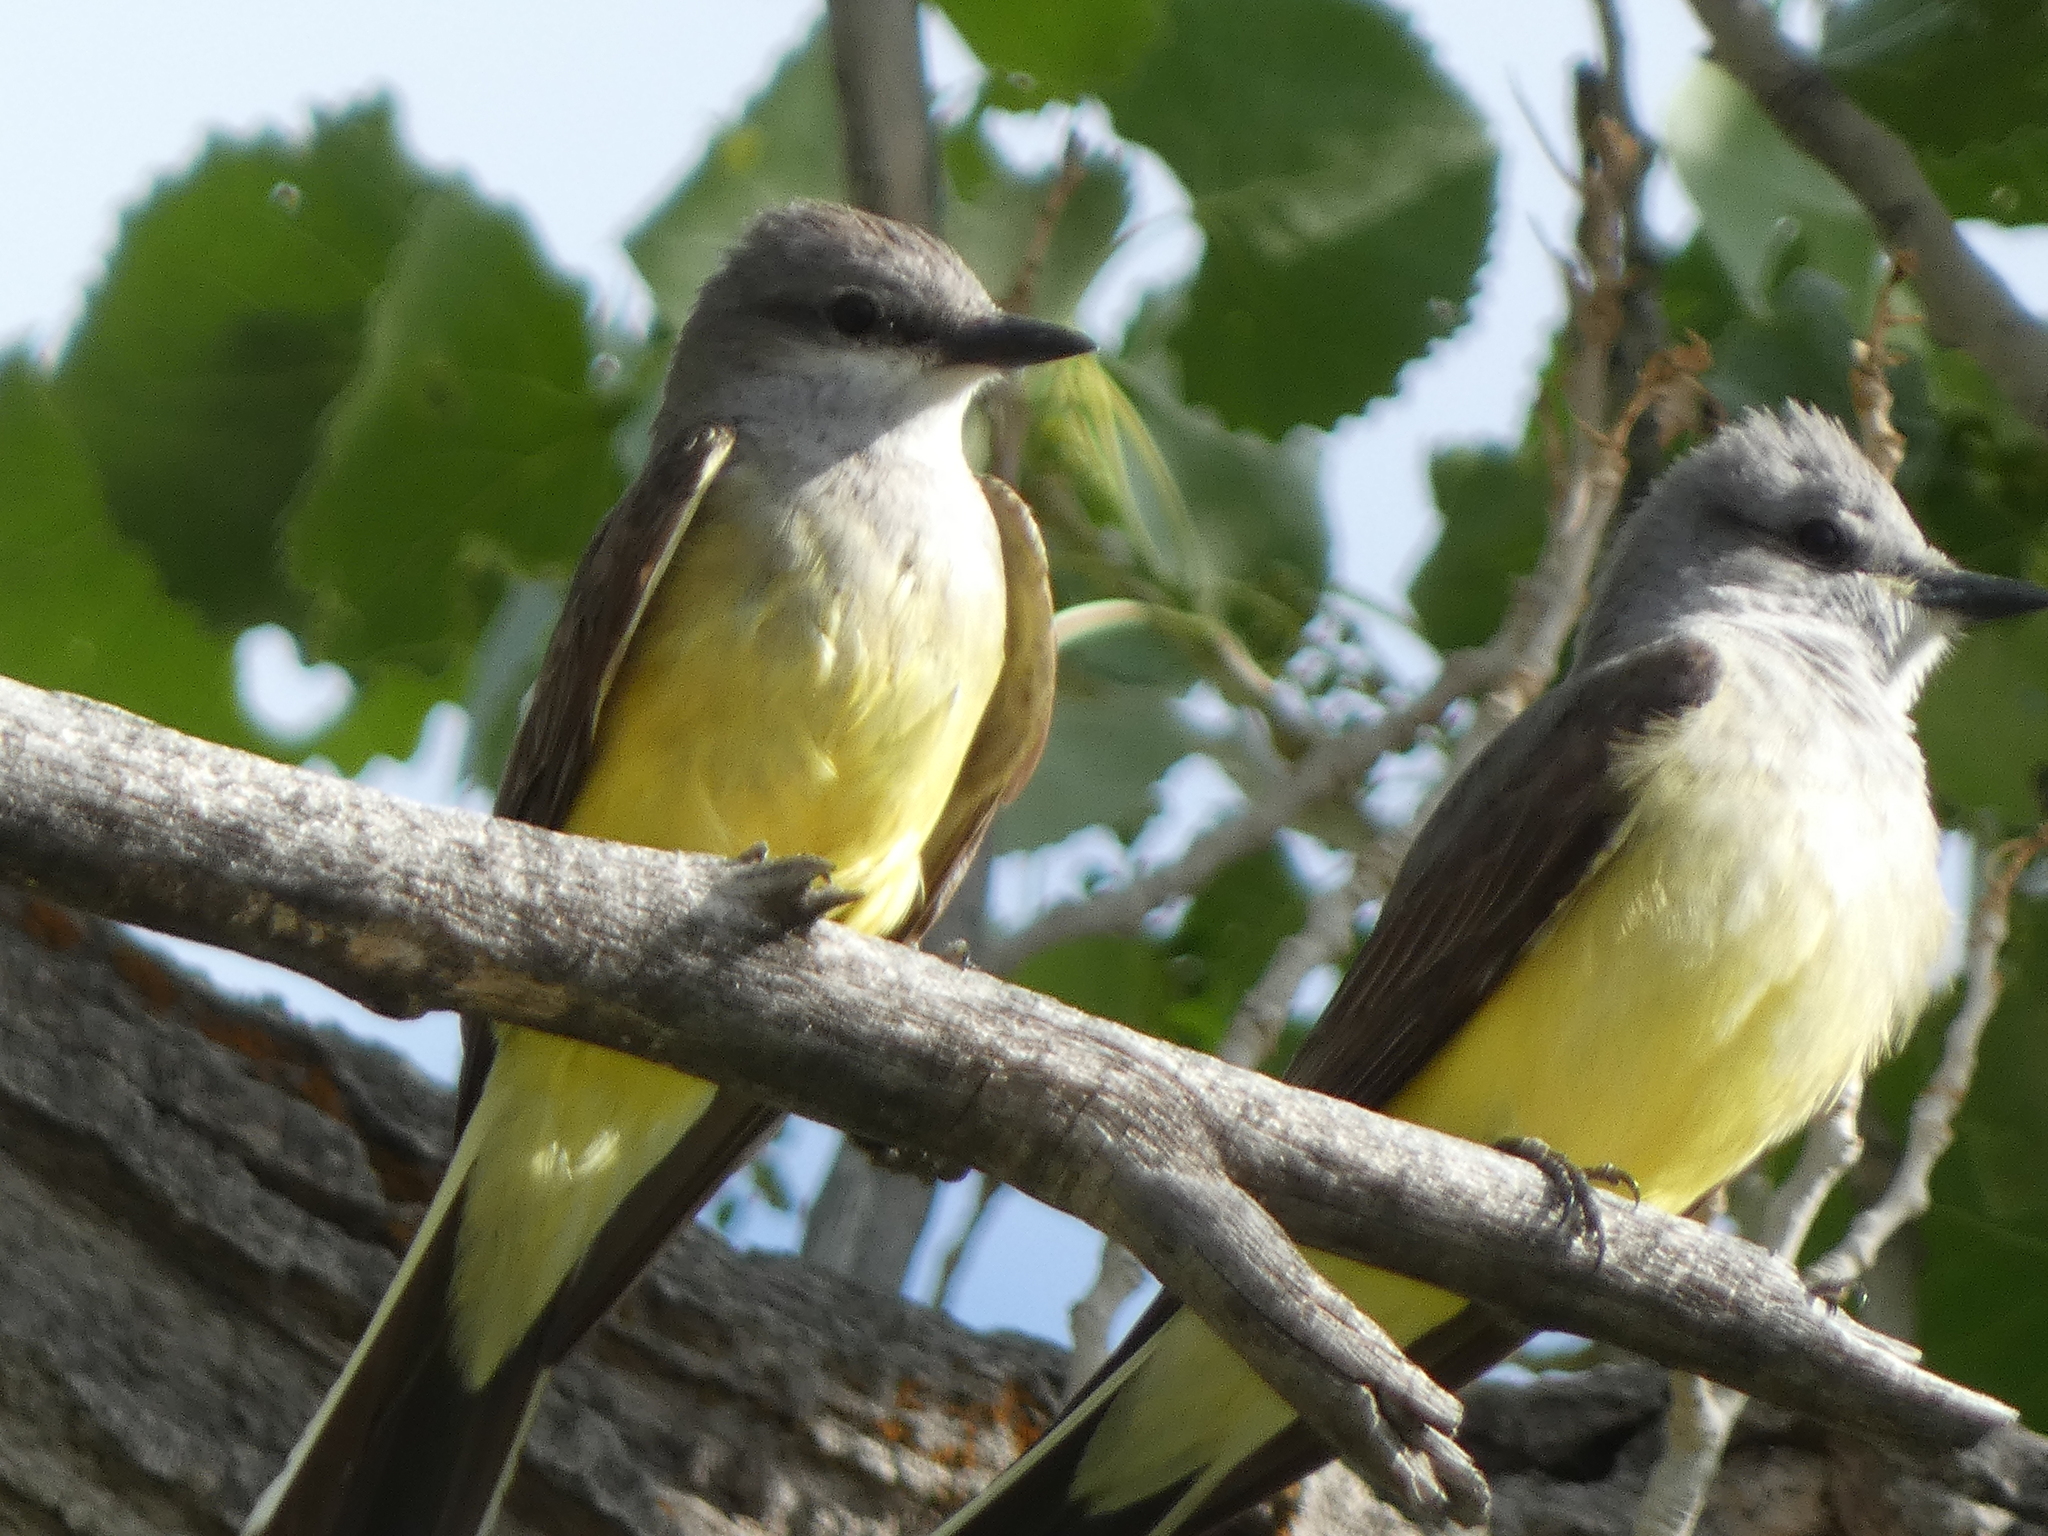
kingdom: Animalia
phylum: Chordata
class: Aves
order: Passeriformes
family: Tyrannidae
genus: Tyrannus
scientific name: Tyrannus verticalis
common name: Western kingbird
